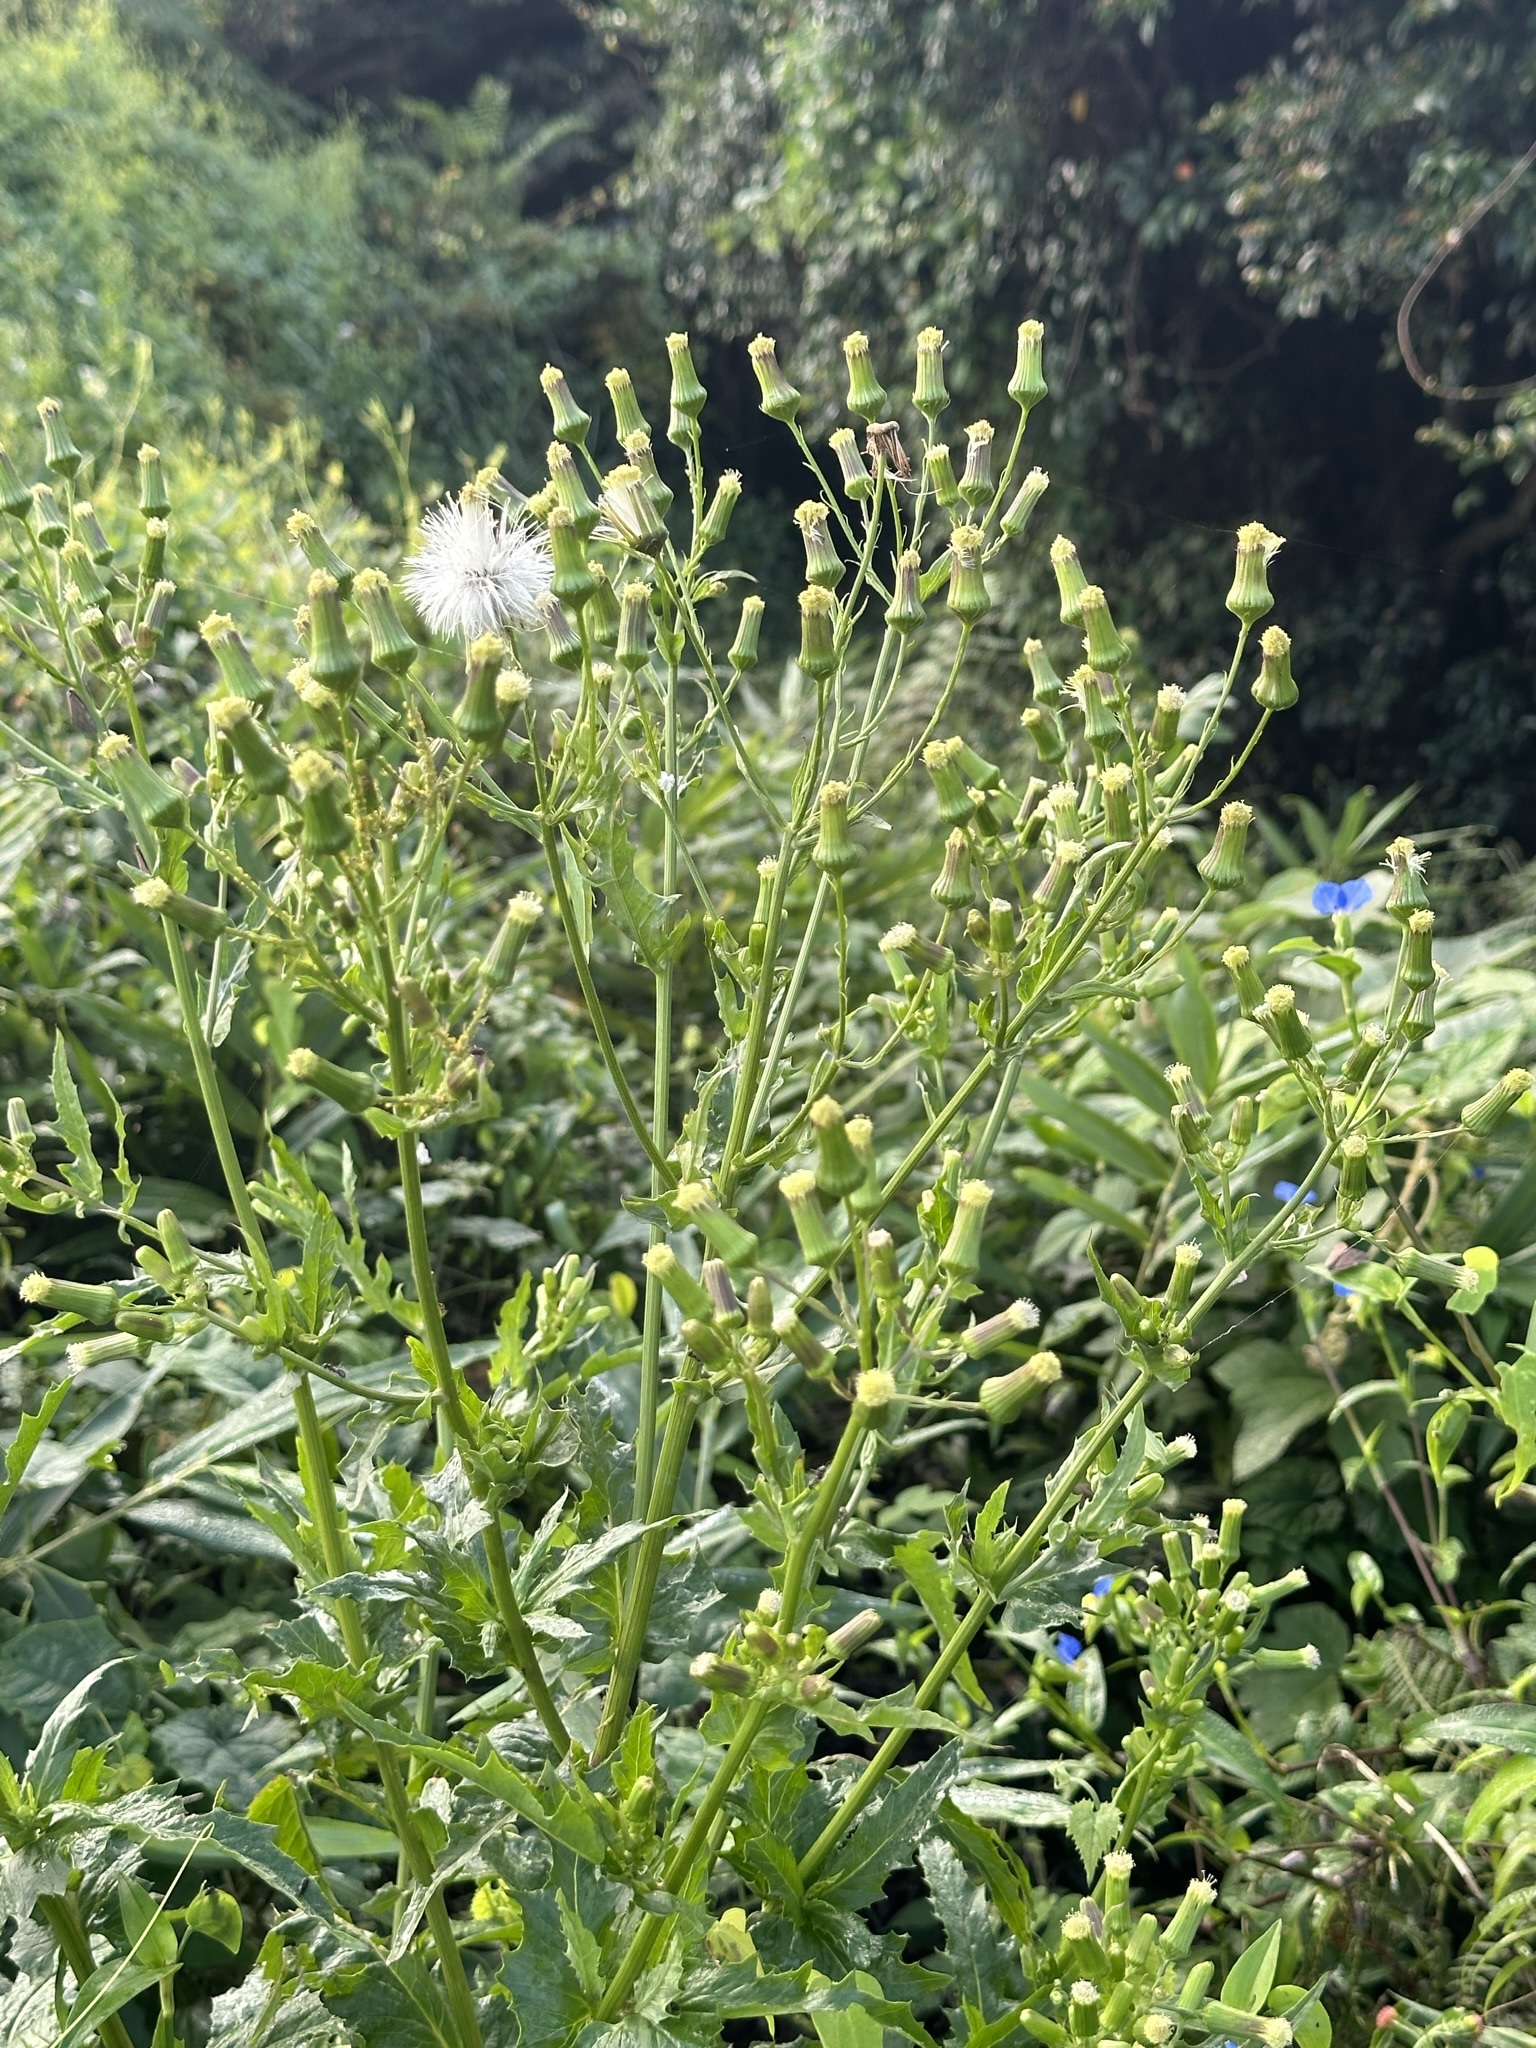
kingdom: Plantae
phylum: Tracheophyta
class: Magnoliopsida
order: Asterales
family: Asteraceae
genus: Erechtites
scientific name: Erechtites hieraciifolius
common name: American burnweed
